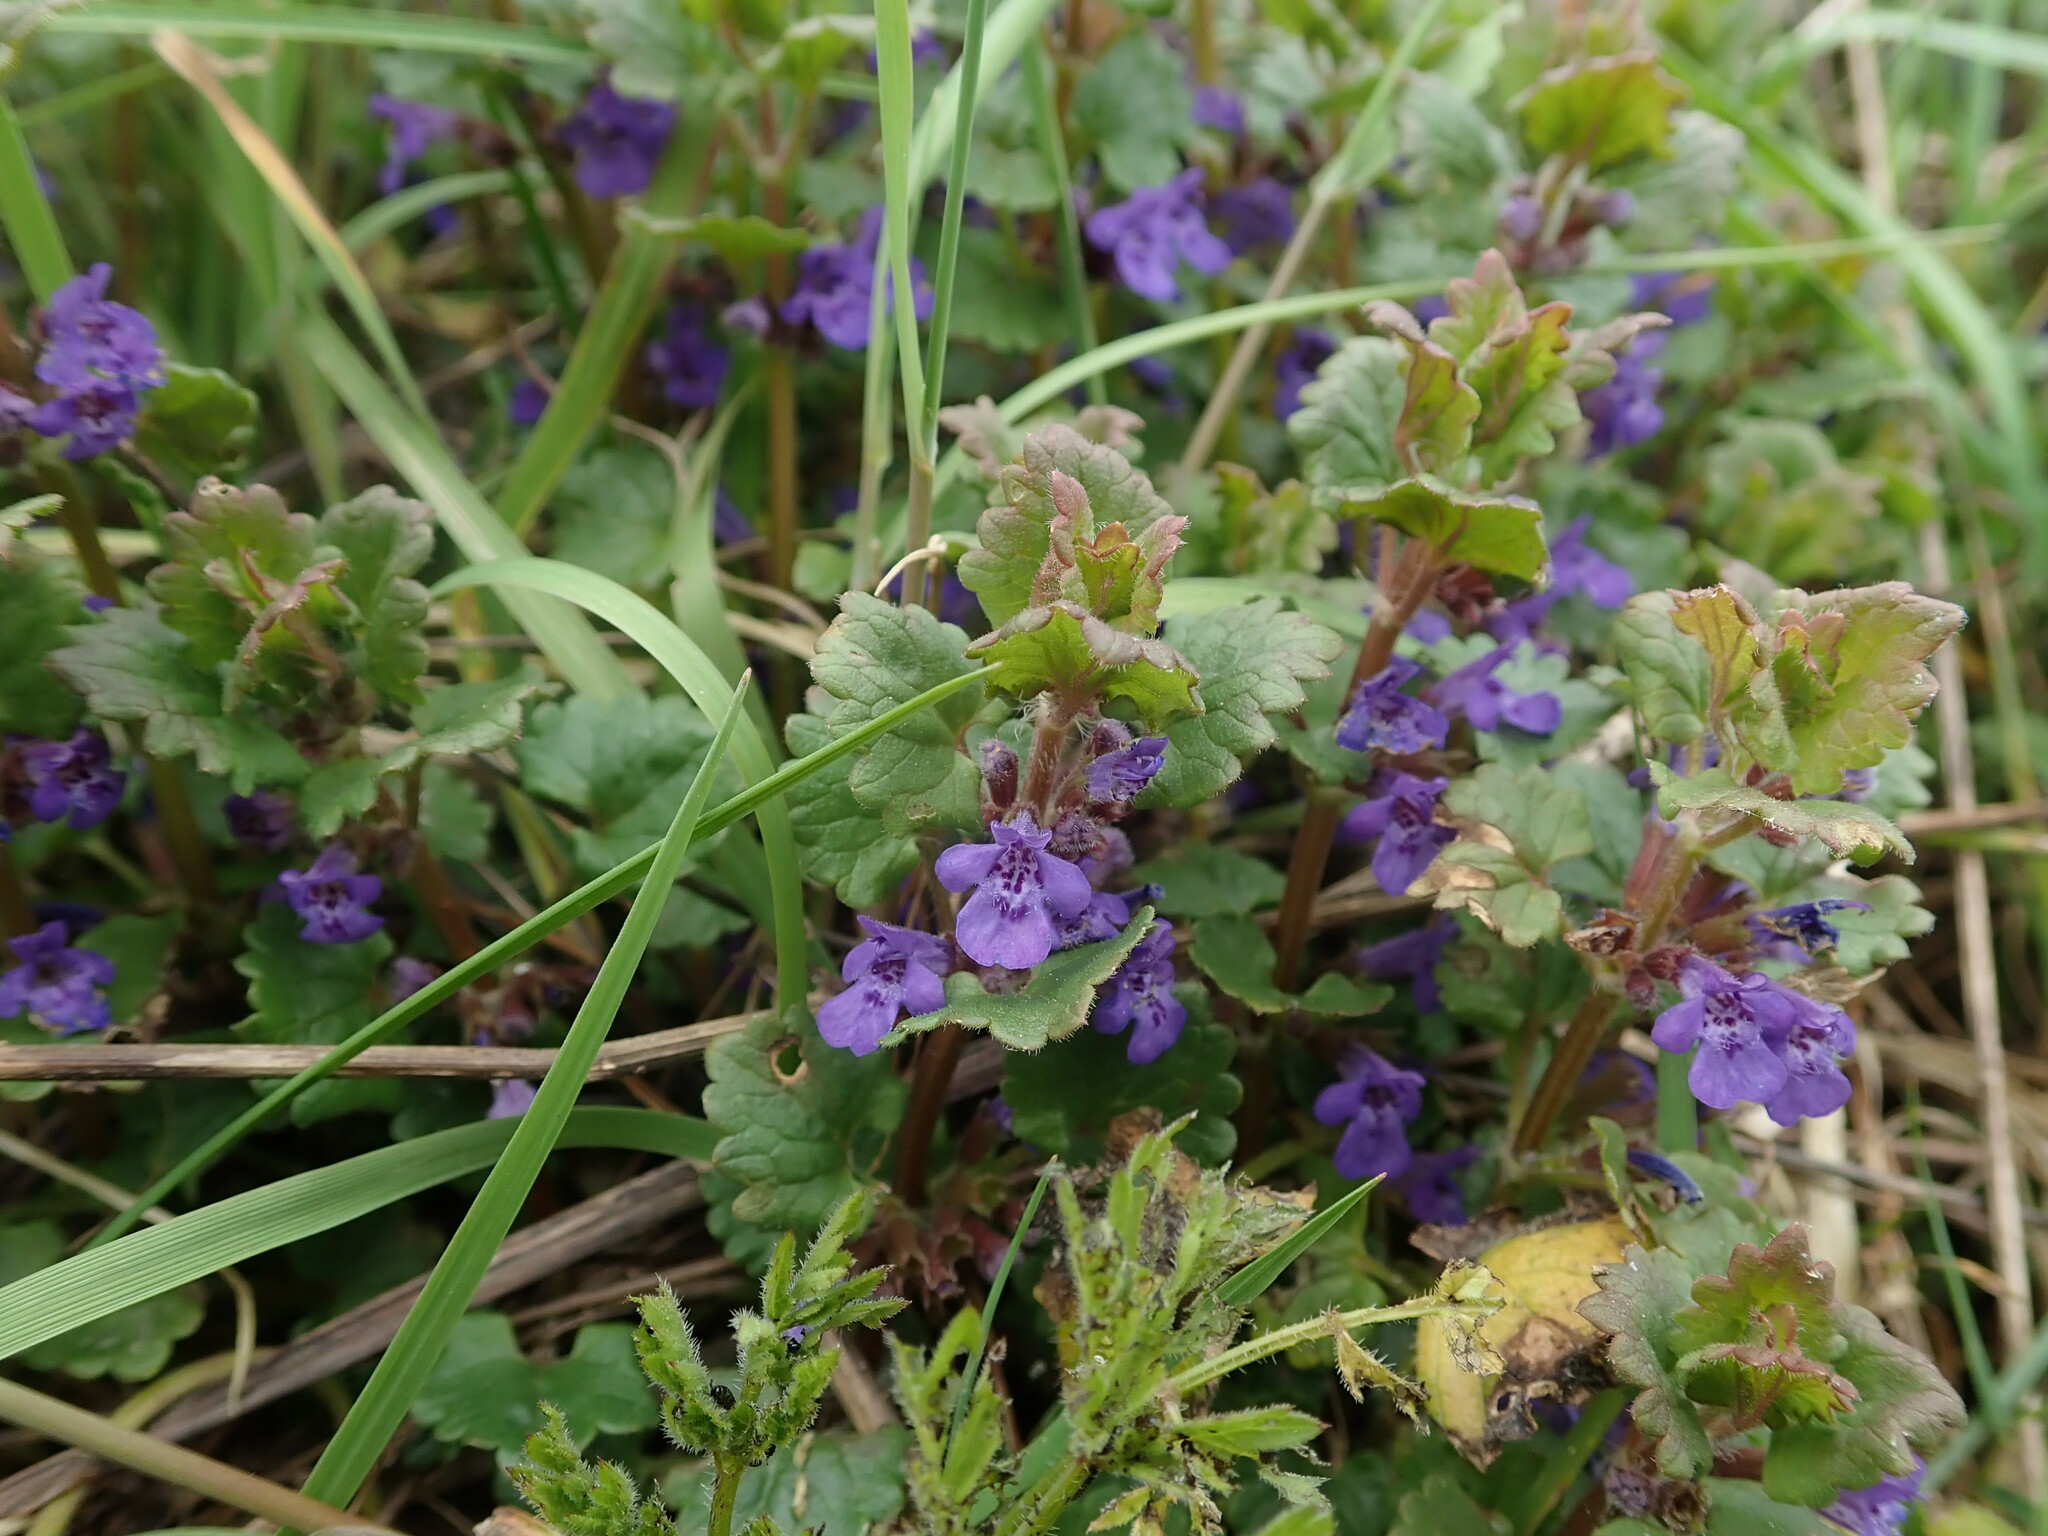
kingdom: Plantae
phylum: Tracheophyta
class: Magnoliopsida
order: Lamiales
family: Lamiaceae
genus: Glechoma
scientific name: Glechoma hederacea
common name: Ground ivy
